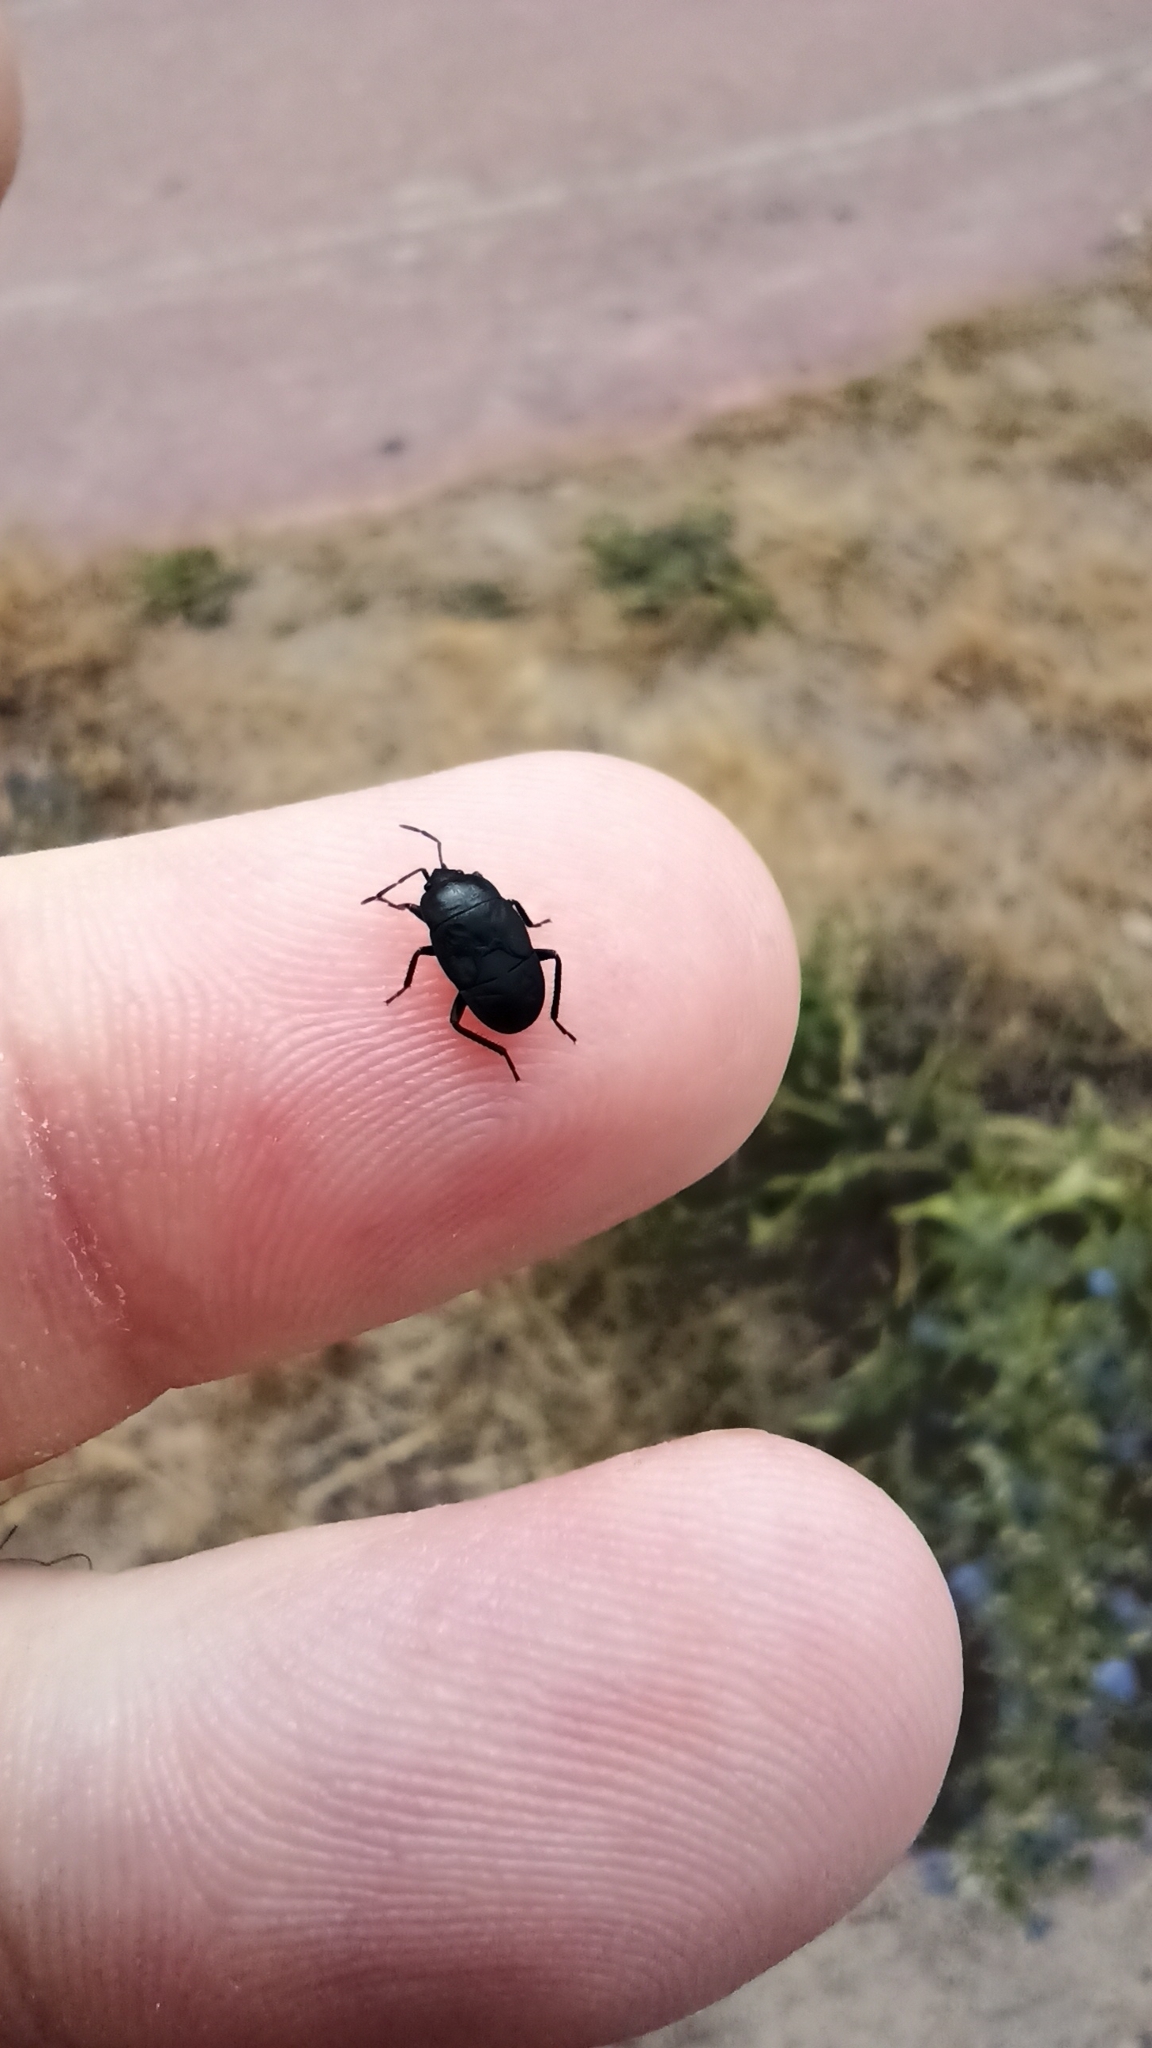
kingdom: Animalia
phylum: Arthropoda
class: Insecta
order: Hemiptera
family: Rhyparochromidae
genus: Aellopus
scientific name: Aellopus atratus
